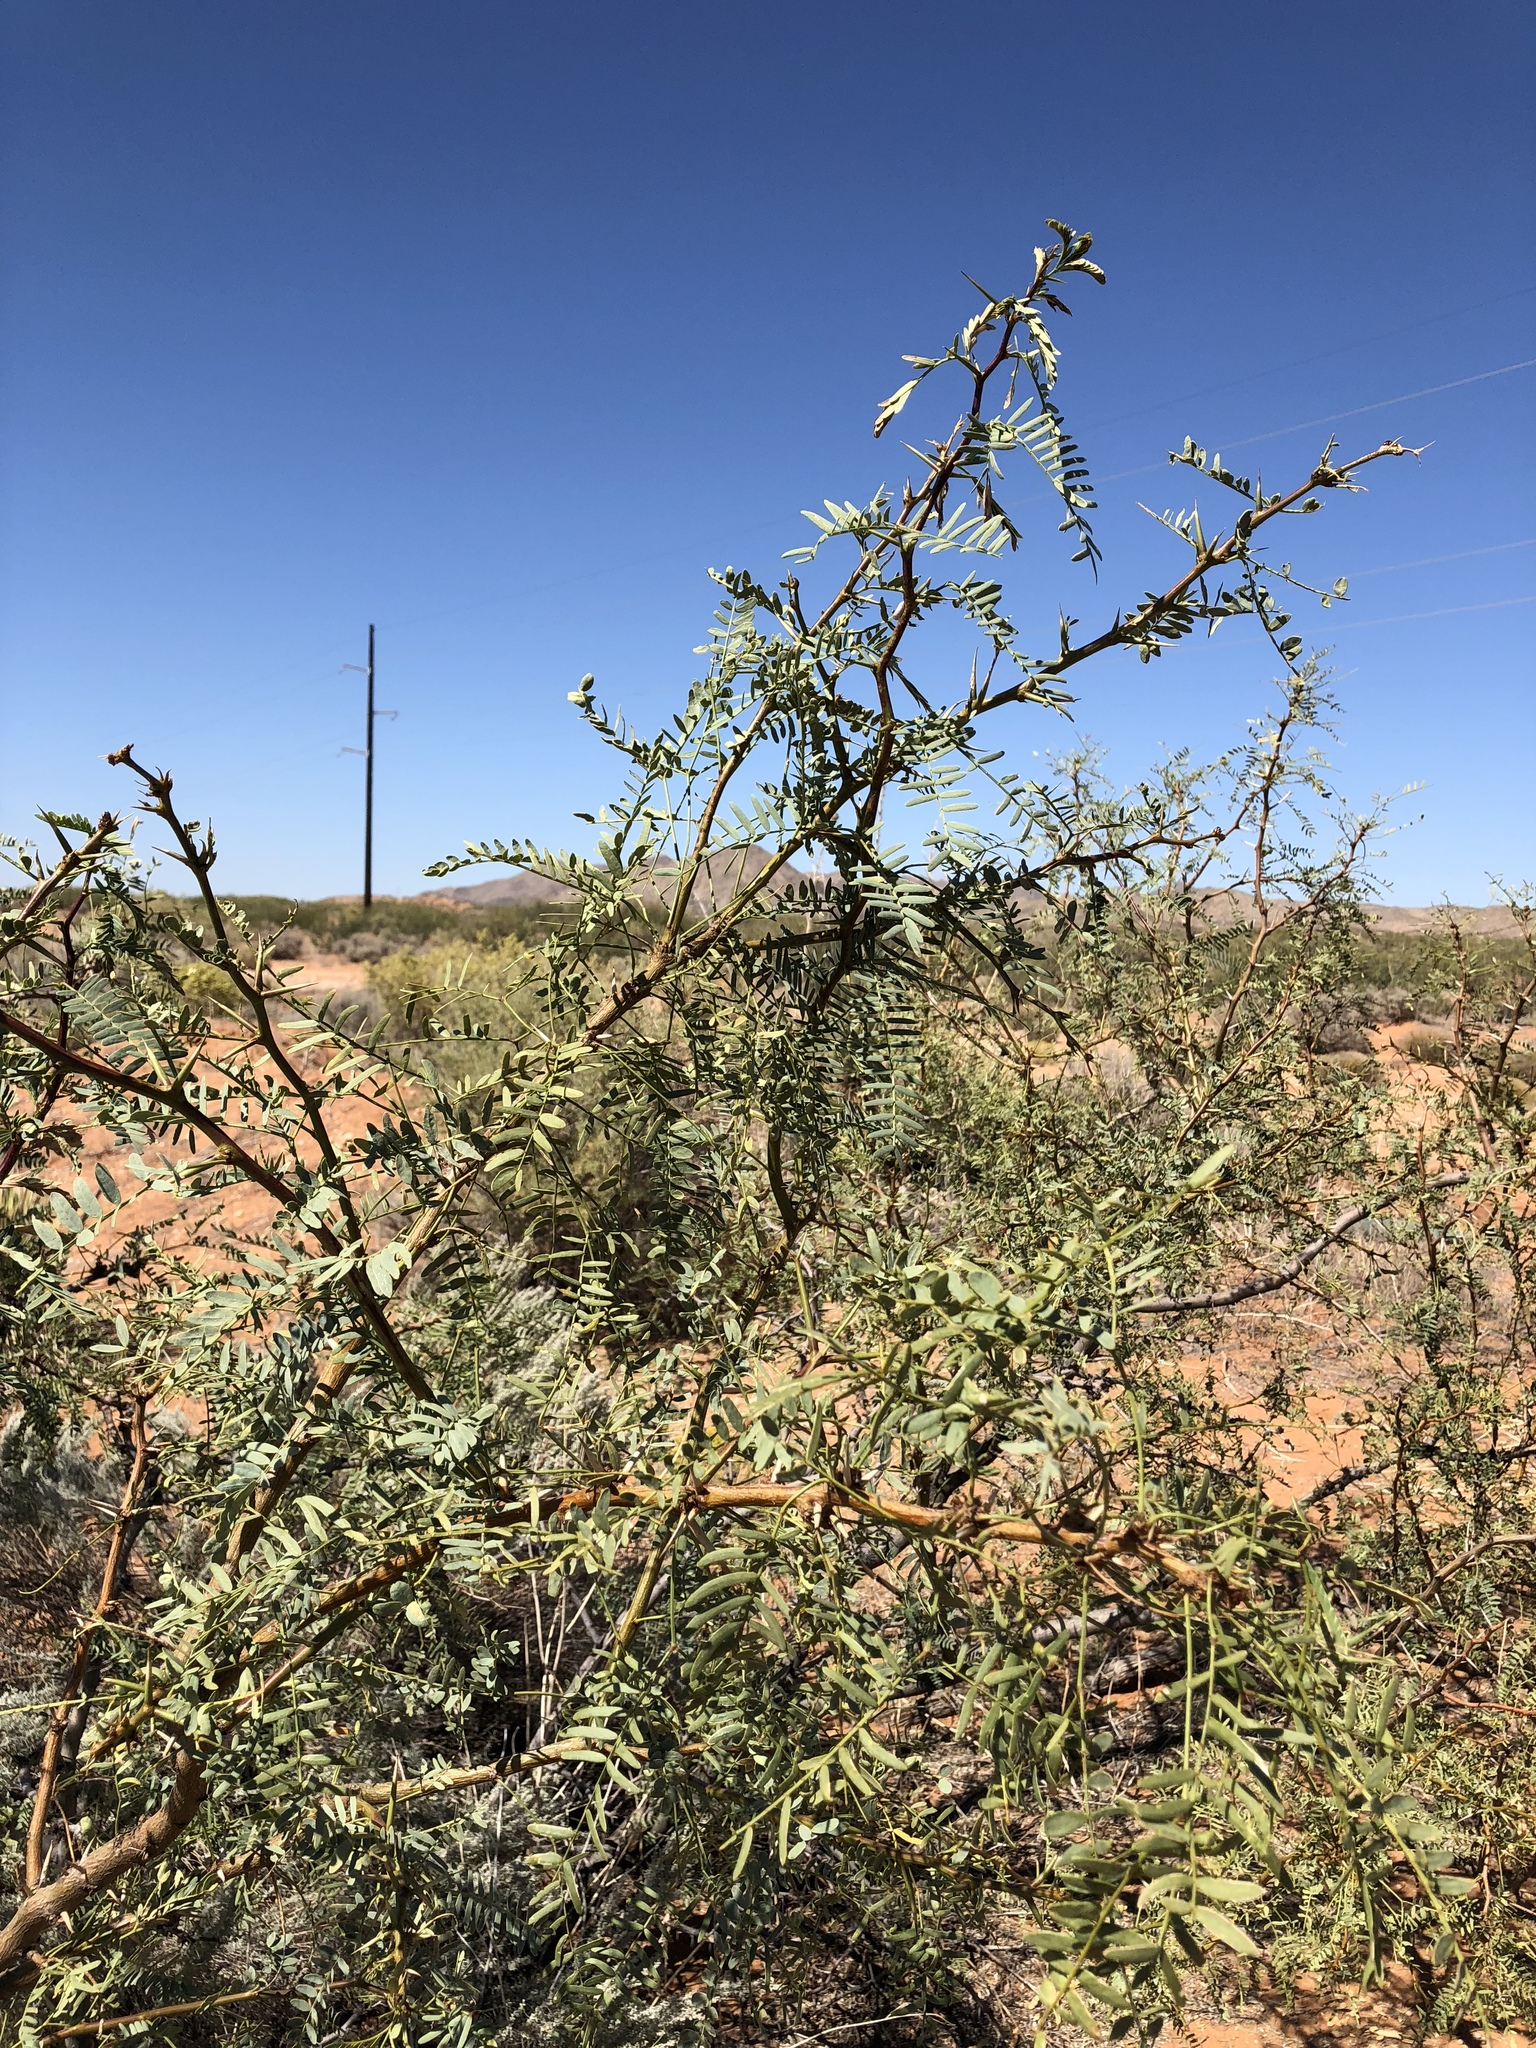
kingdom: Plantae
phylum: Tracheophyta
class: Magnoliopsida
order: Fabales
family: Fabaceae
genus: Prosopis
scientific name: Prosopis glandulosa
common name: Honey mesquite
